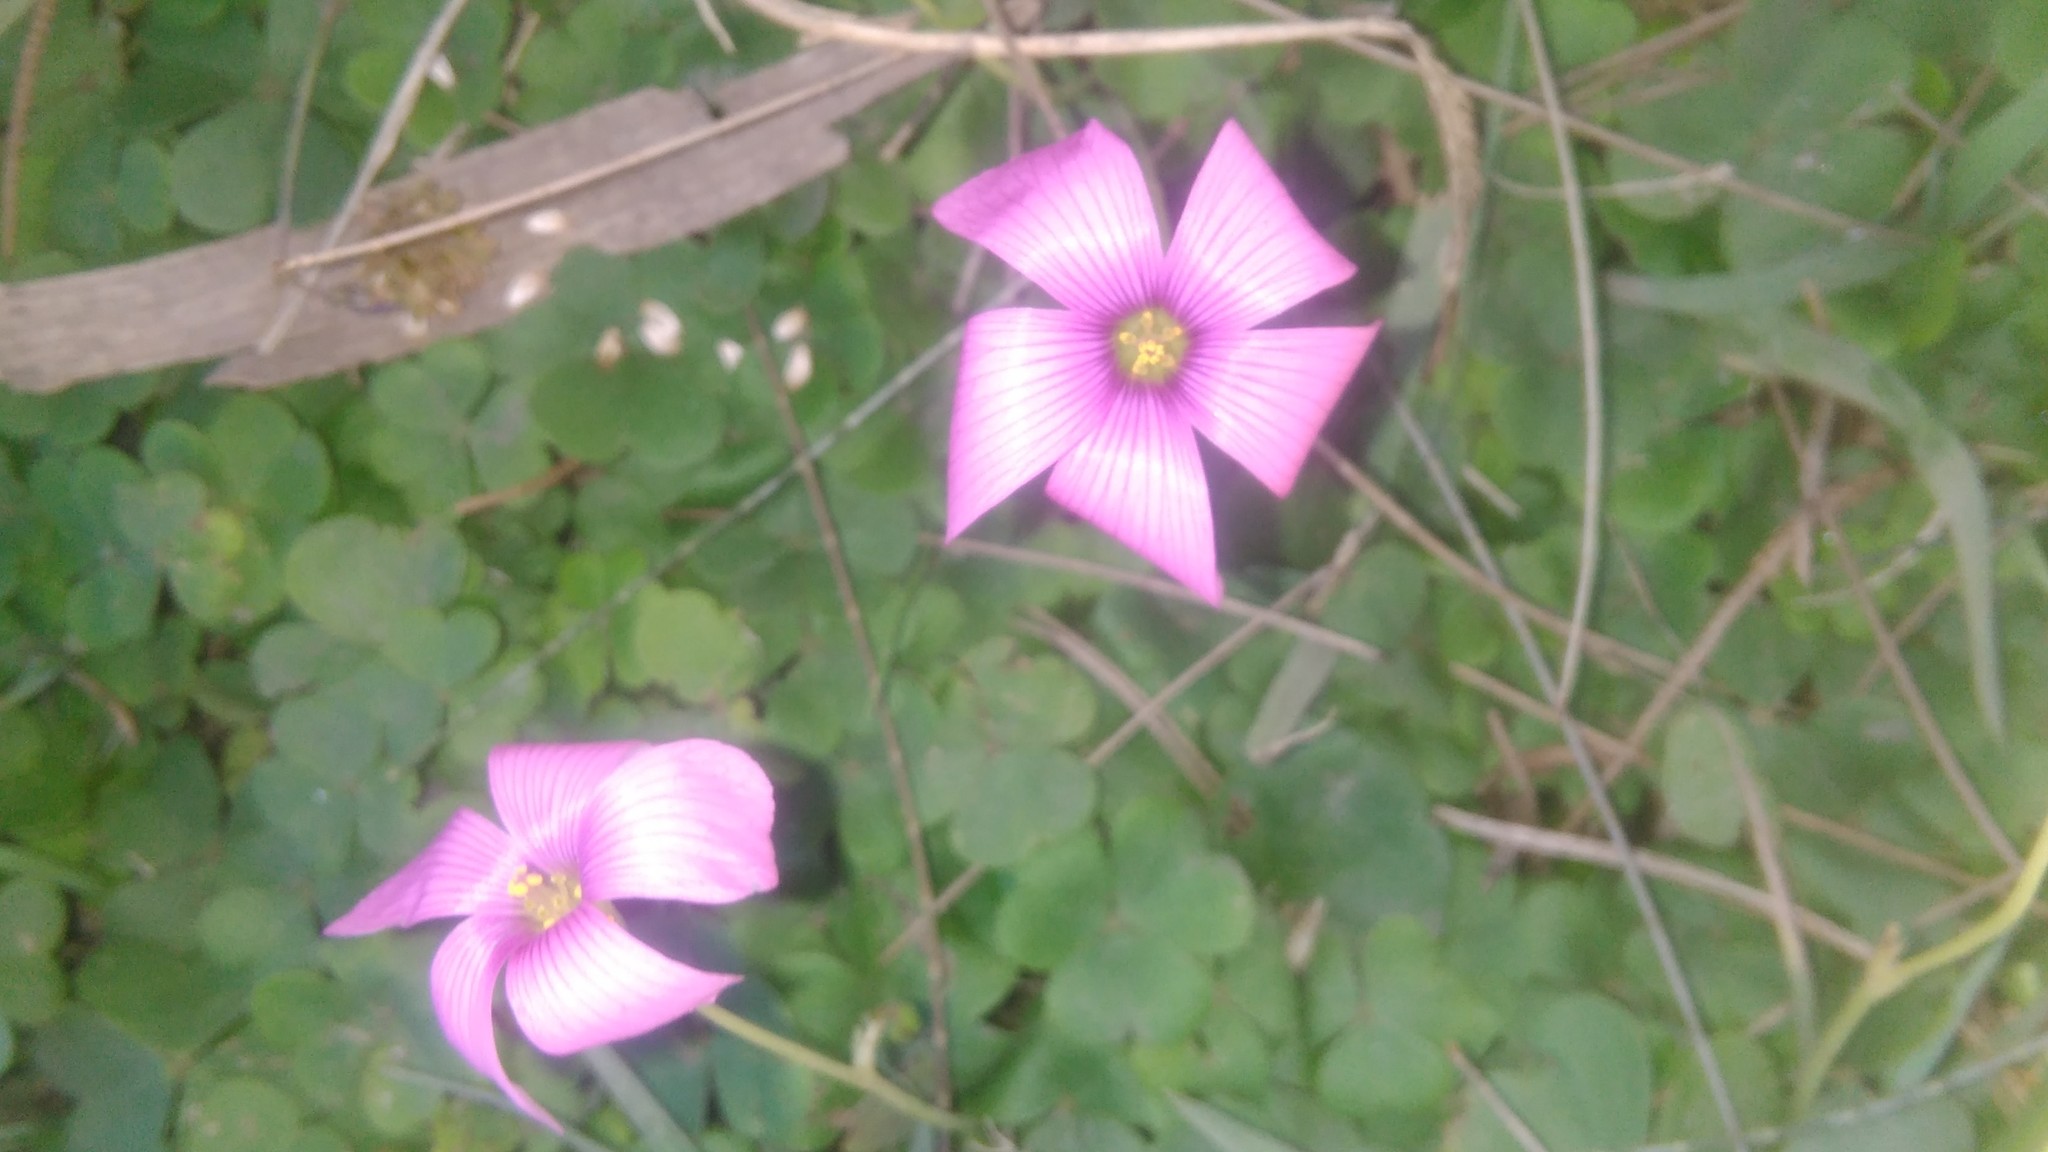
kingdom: Plantae
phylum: Tracheophyta
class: Magnoliopsida
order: Oxalidales
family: Oxalidaceae
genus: Oxalis
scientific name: Oxalis hispidula
